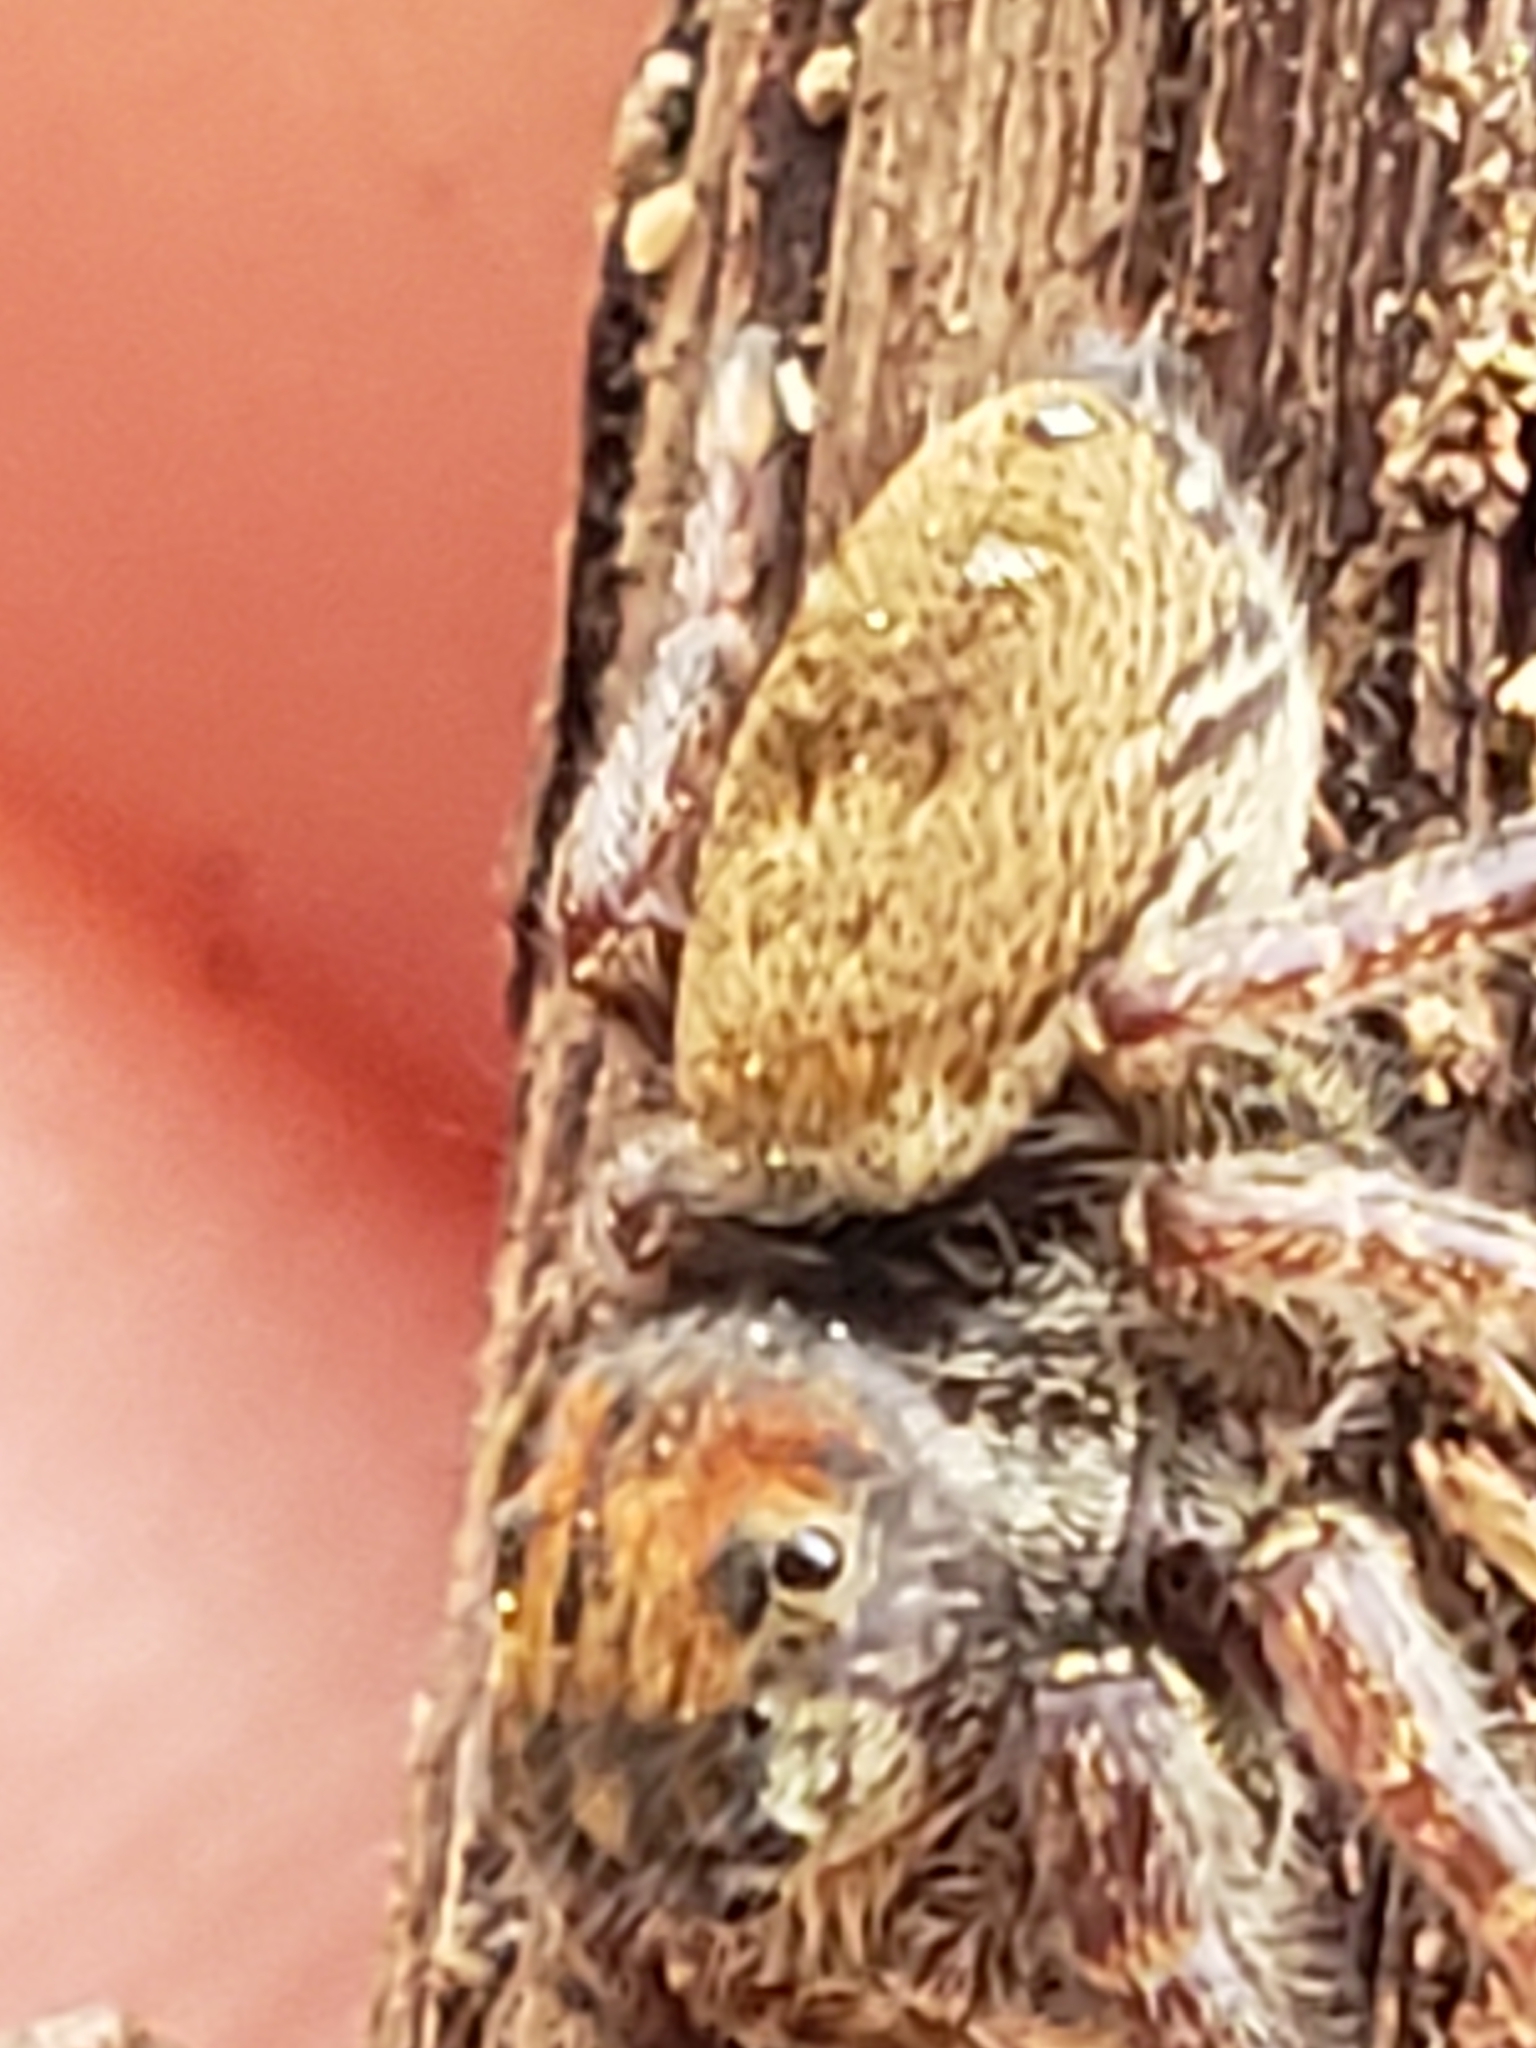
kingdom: Animalia
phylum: Arthropoda
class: Arachnida
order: Araneae
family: Salticidae
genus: Phidippus
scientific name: Phidippus whitmani
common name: Whitman's jumping spider
